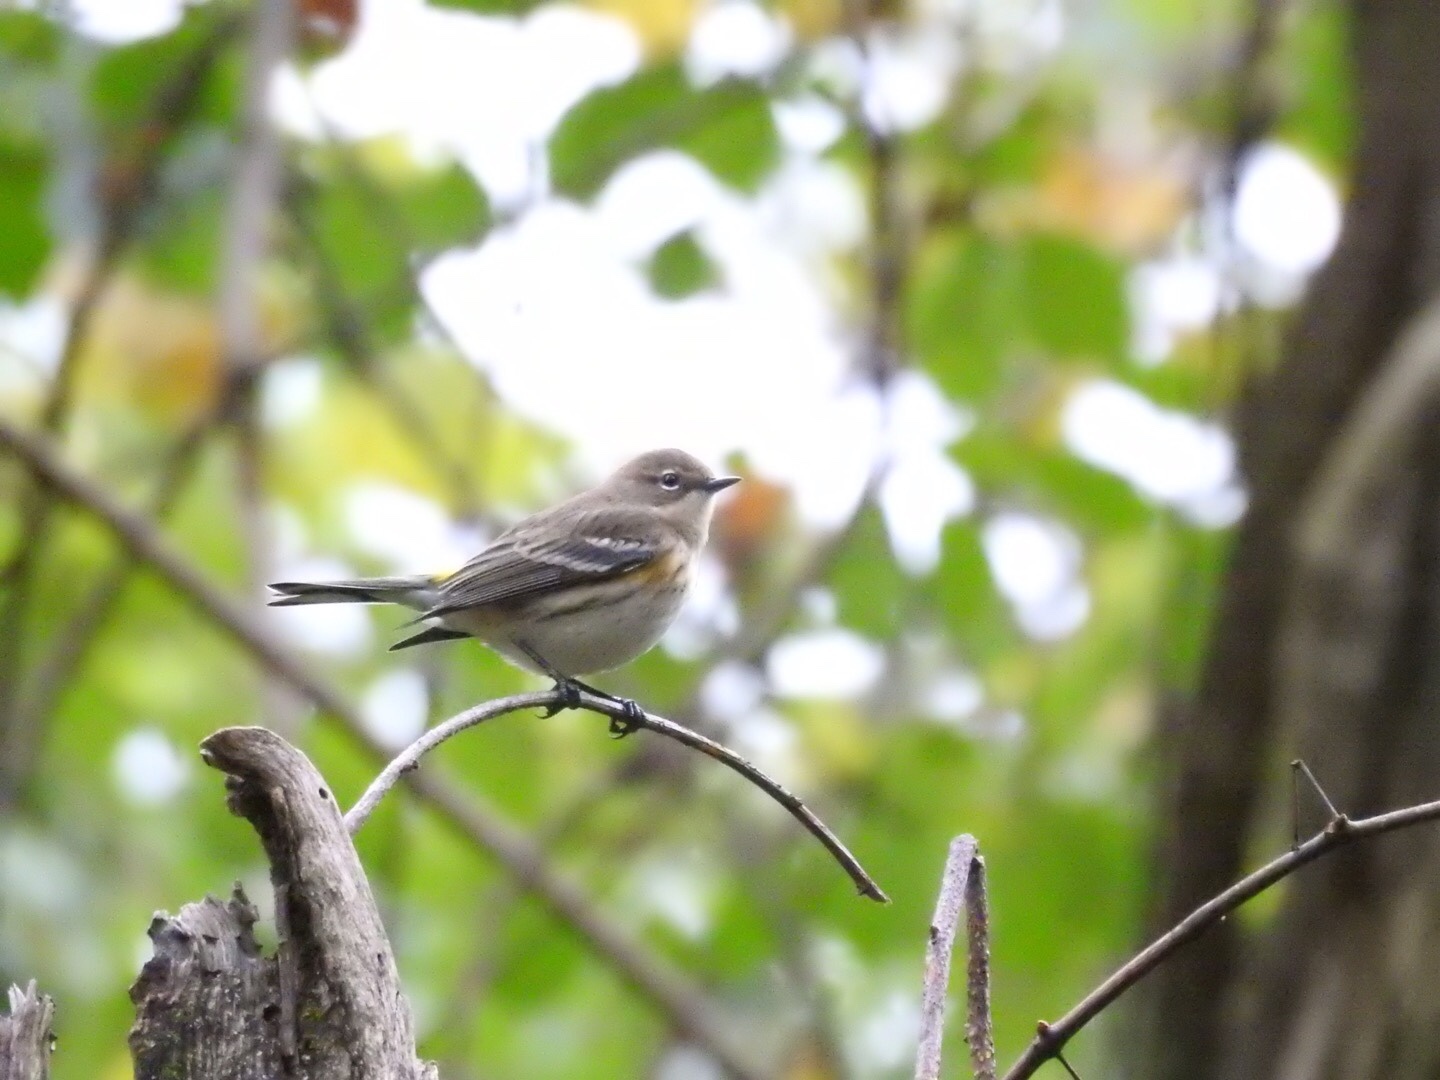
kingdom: Animalia
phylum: Chordata
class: Aves
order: Passeriformes
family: Parulidae
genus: Setophaga
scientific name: Setophaga coronata
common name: Myrtle warbler
